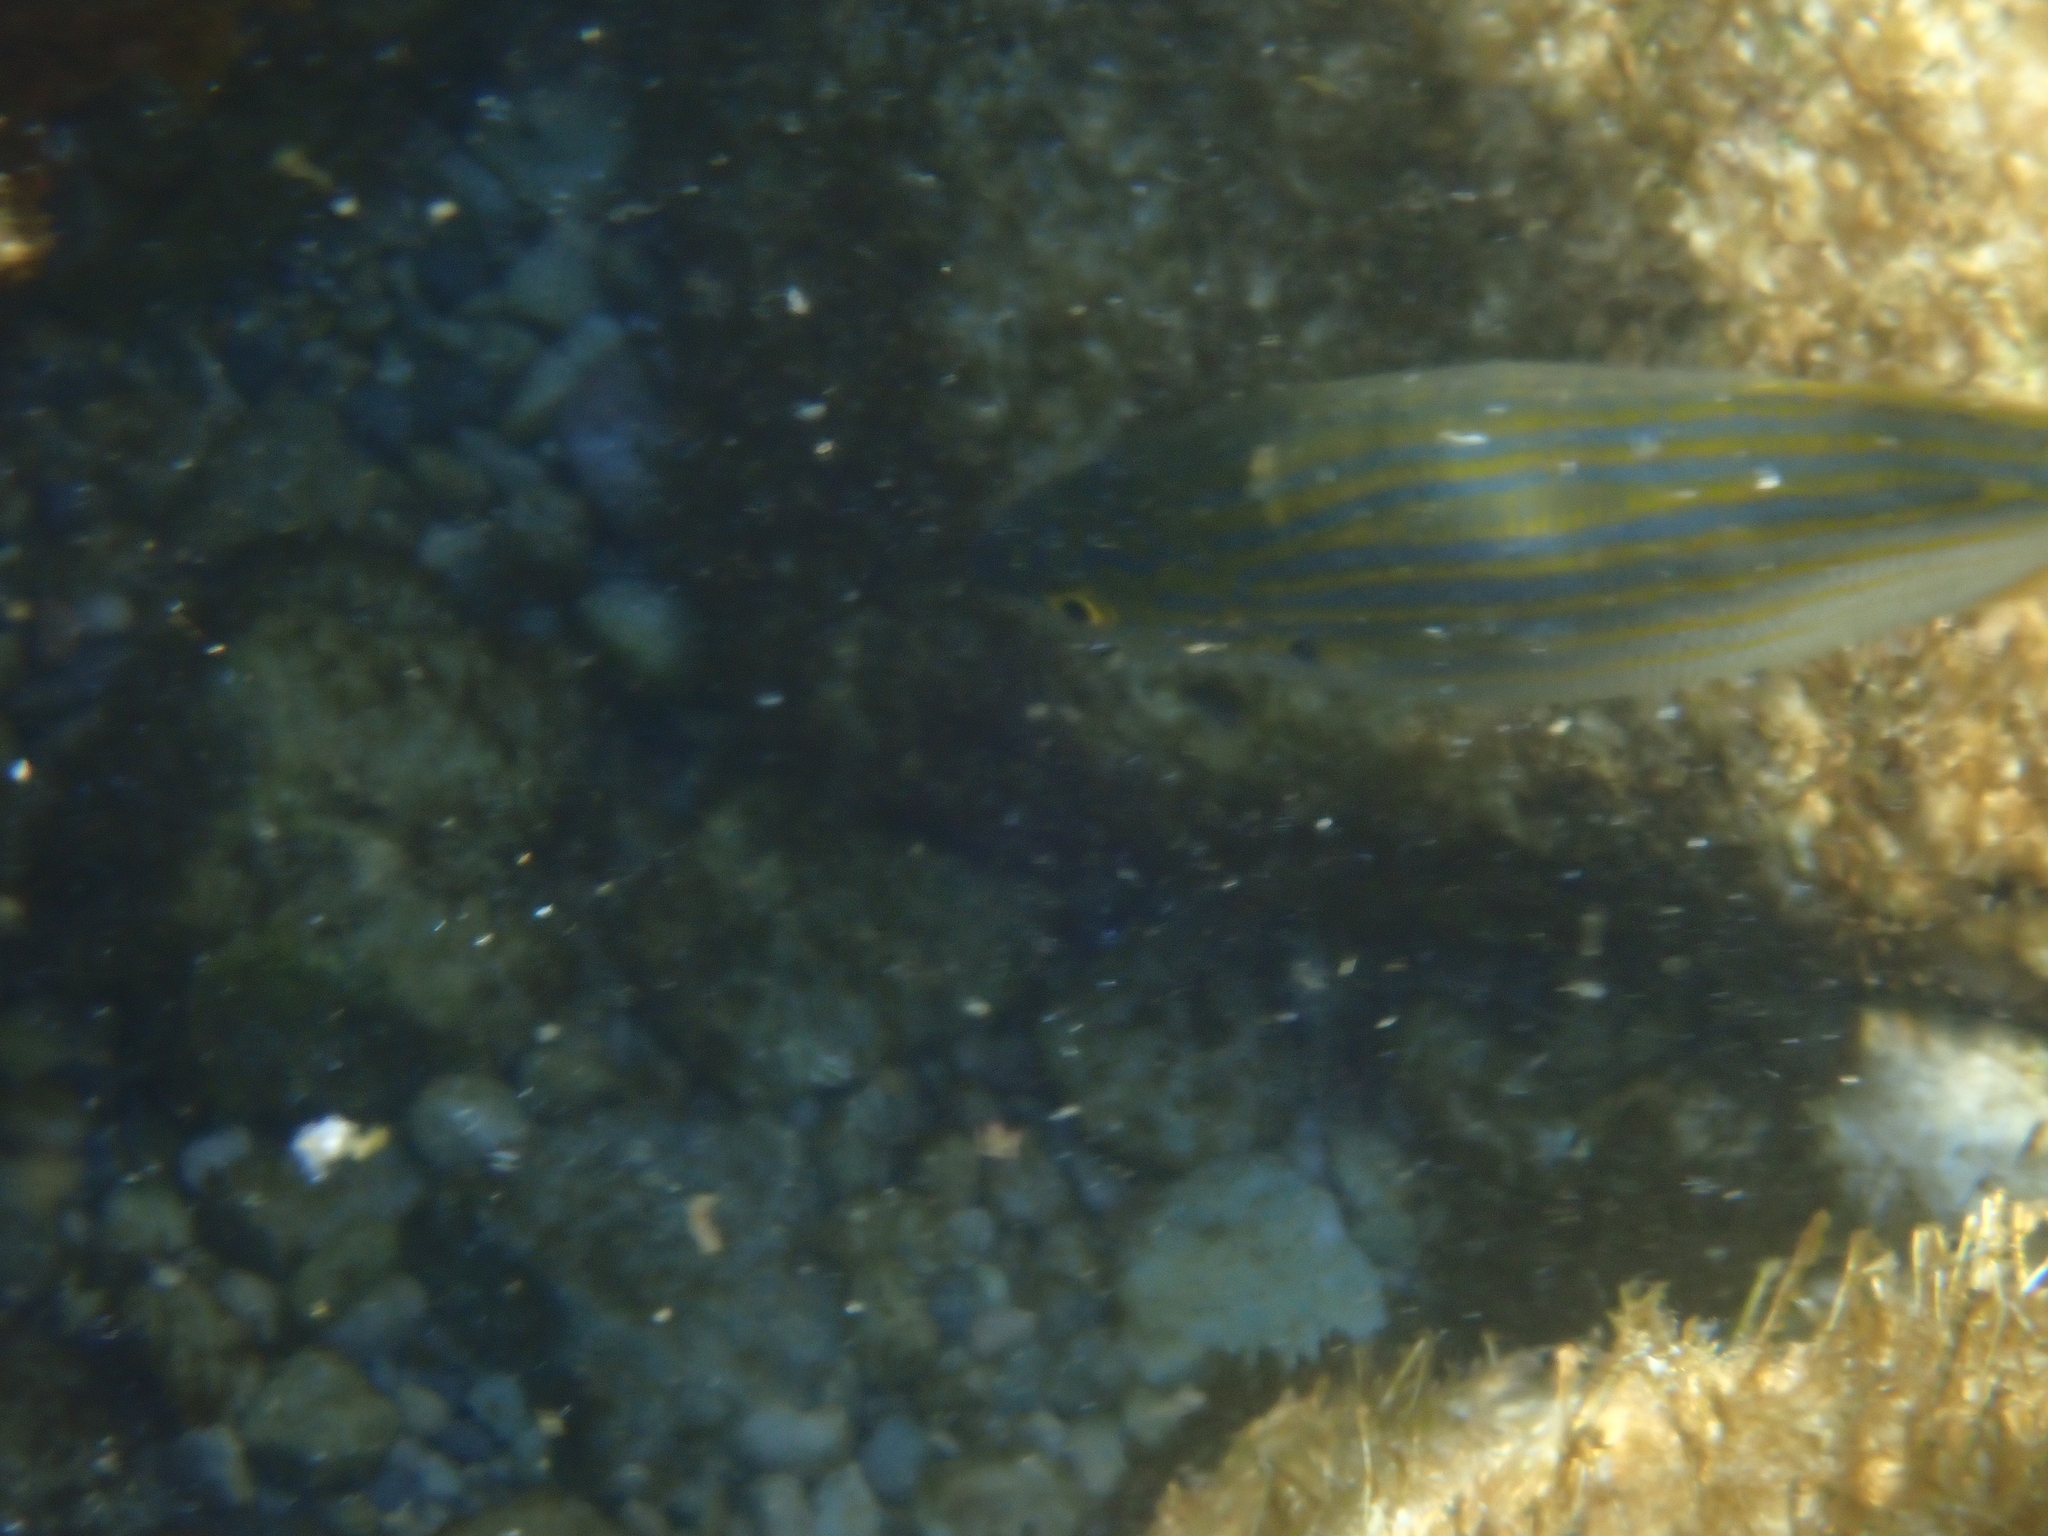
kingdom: Animalia
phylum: Chordata
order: Perciformes
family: Sparidae
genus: Sarpa
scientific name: Sarpa salpa
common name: Salema
